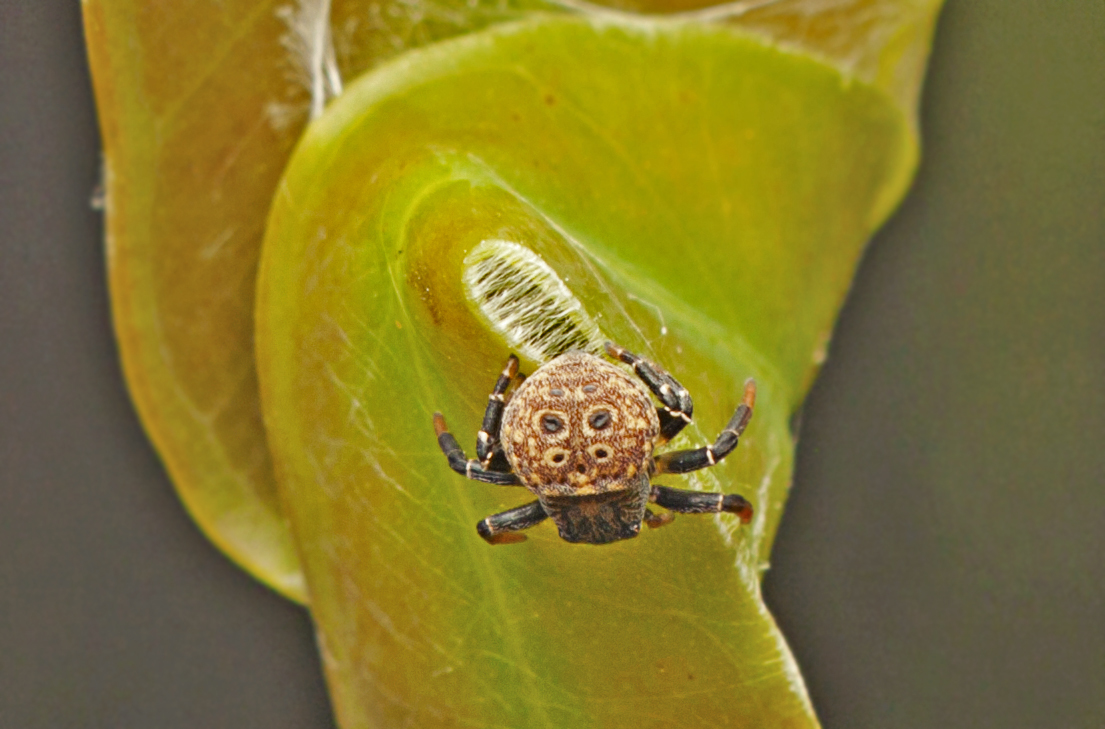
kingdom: Animalia
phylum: Arthropoda
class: Arachnida
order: Araneae
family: Thomisidae
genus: Cymbacha
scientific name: Cymbacha ocellata
